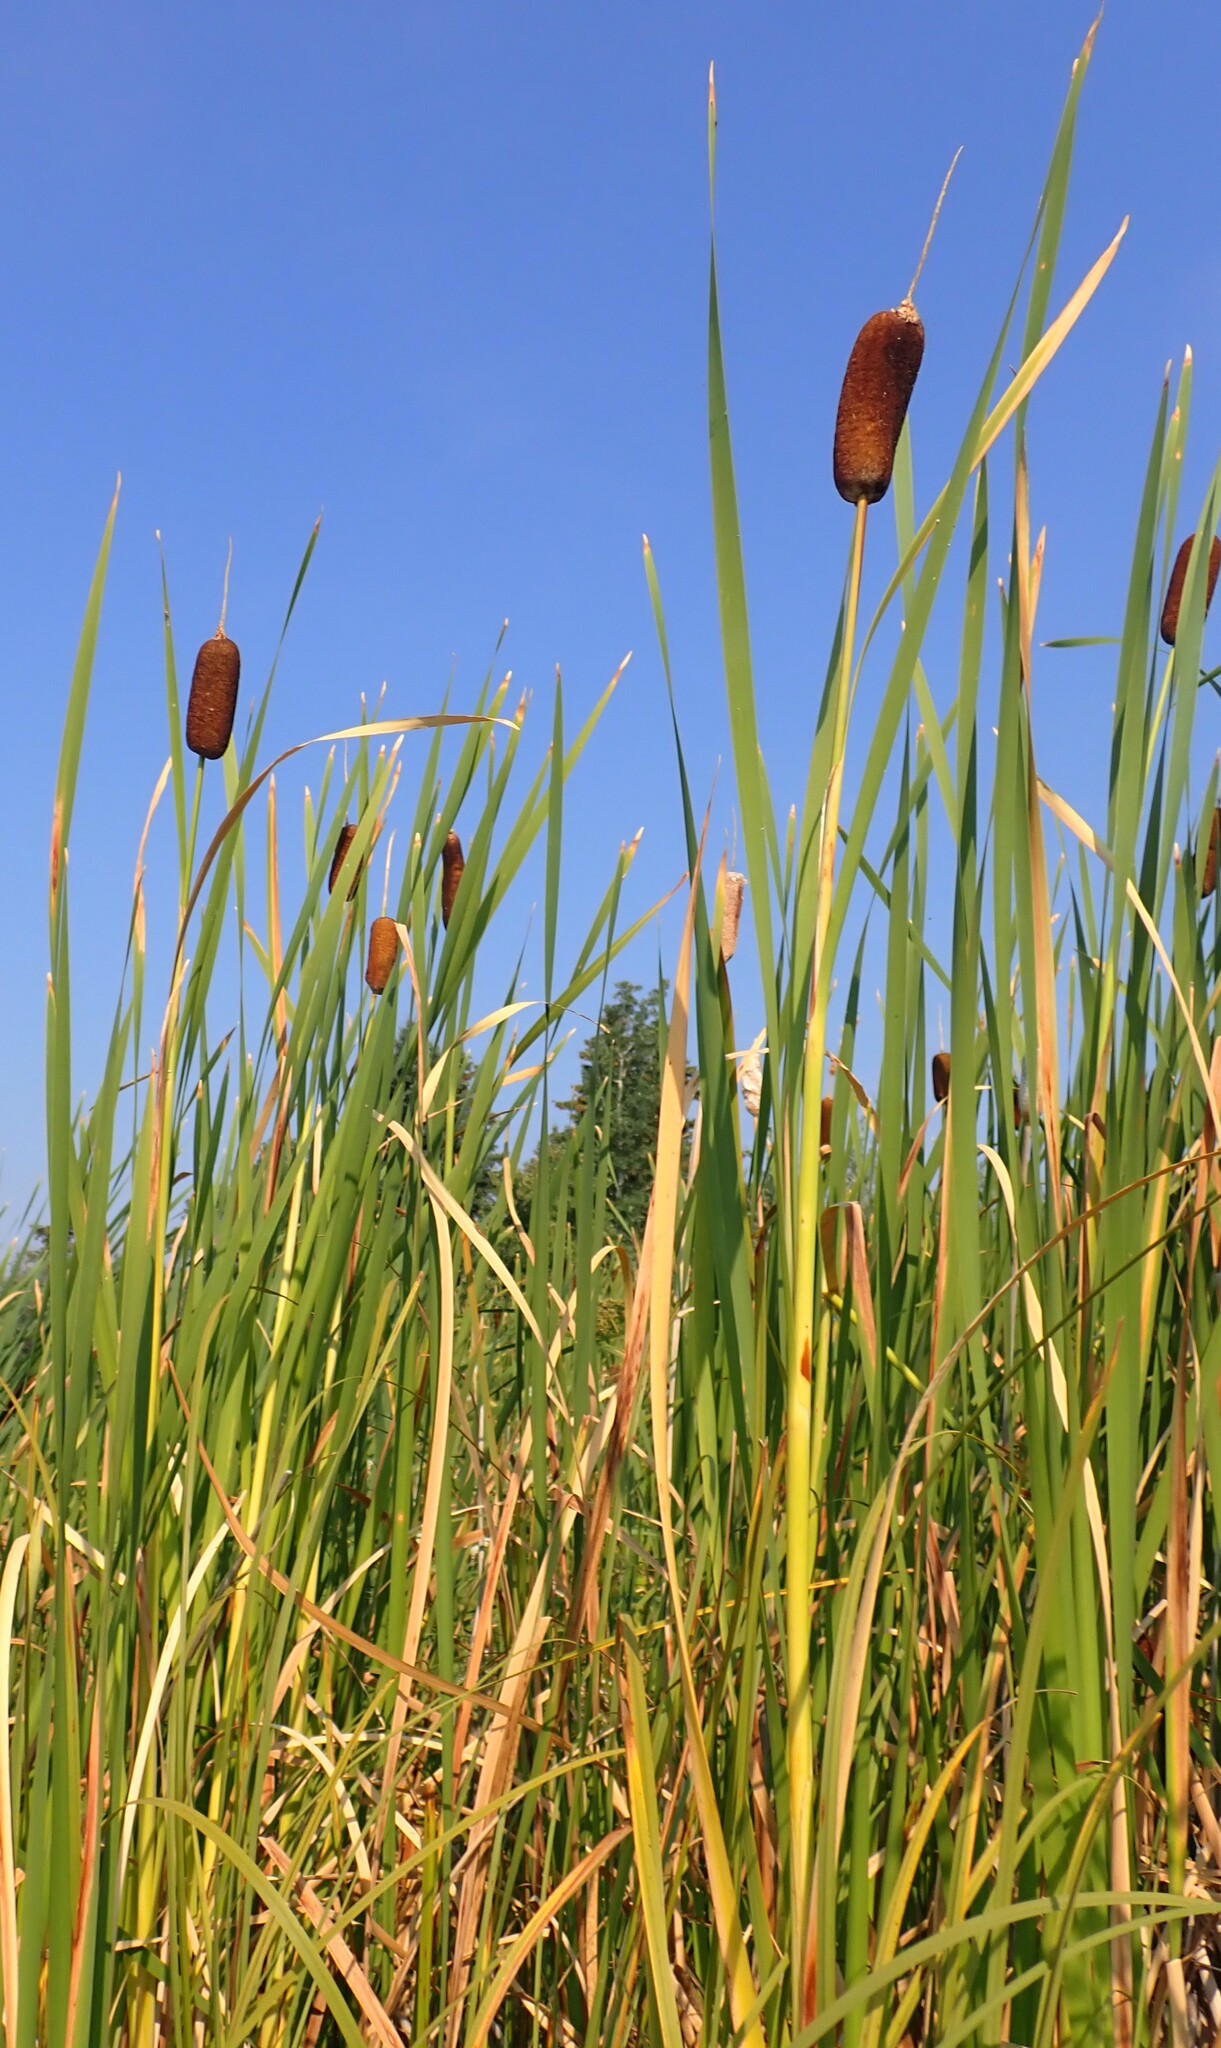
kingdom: Plantae
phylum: Tracheophyta
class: Liliopsida
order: Poales
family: Typhaceae
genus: Typha
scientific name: Typha latifolia
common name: Broadleaf cattail
